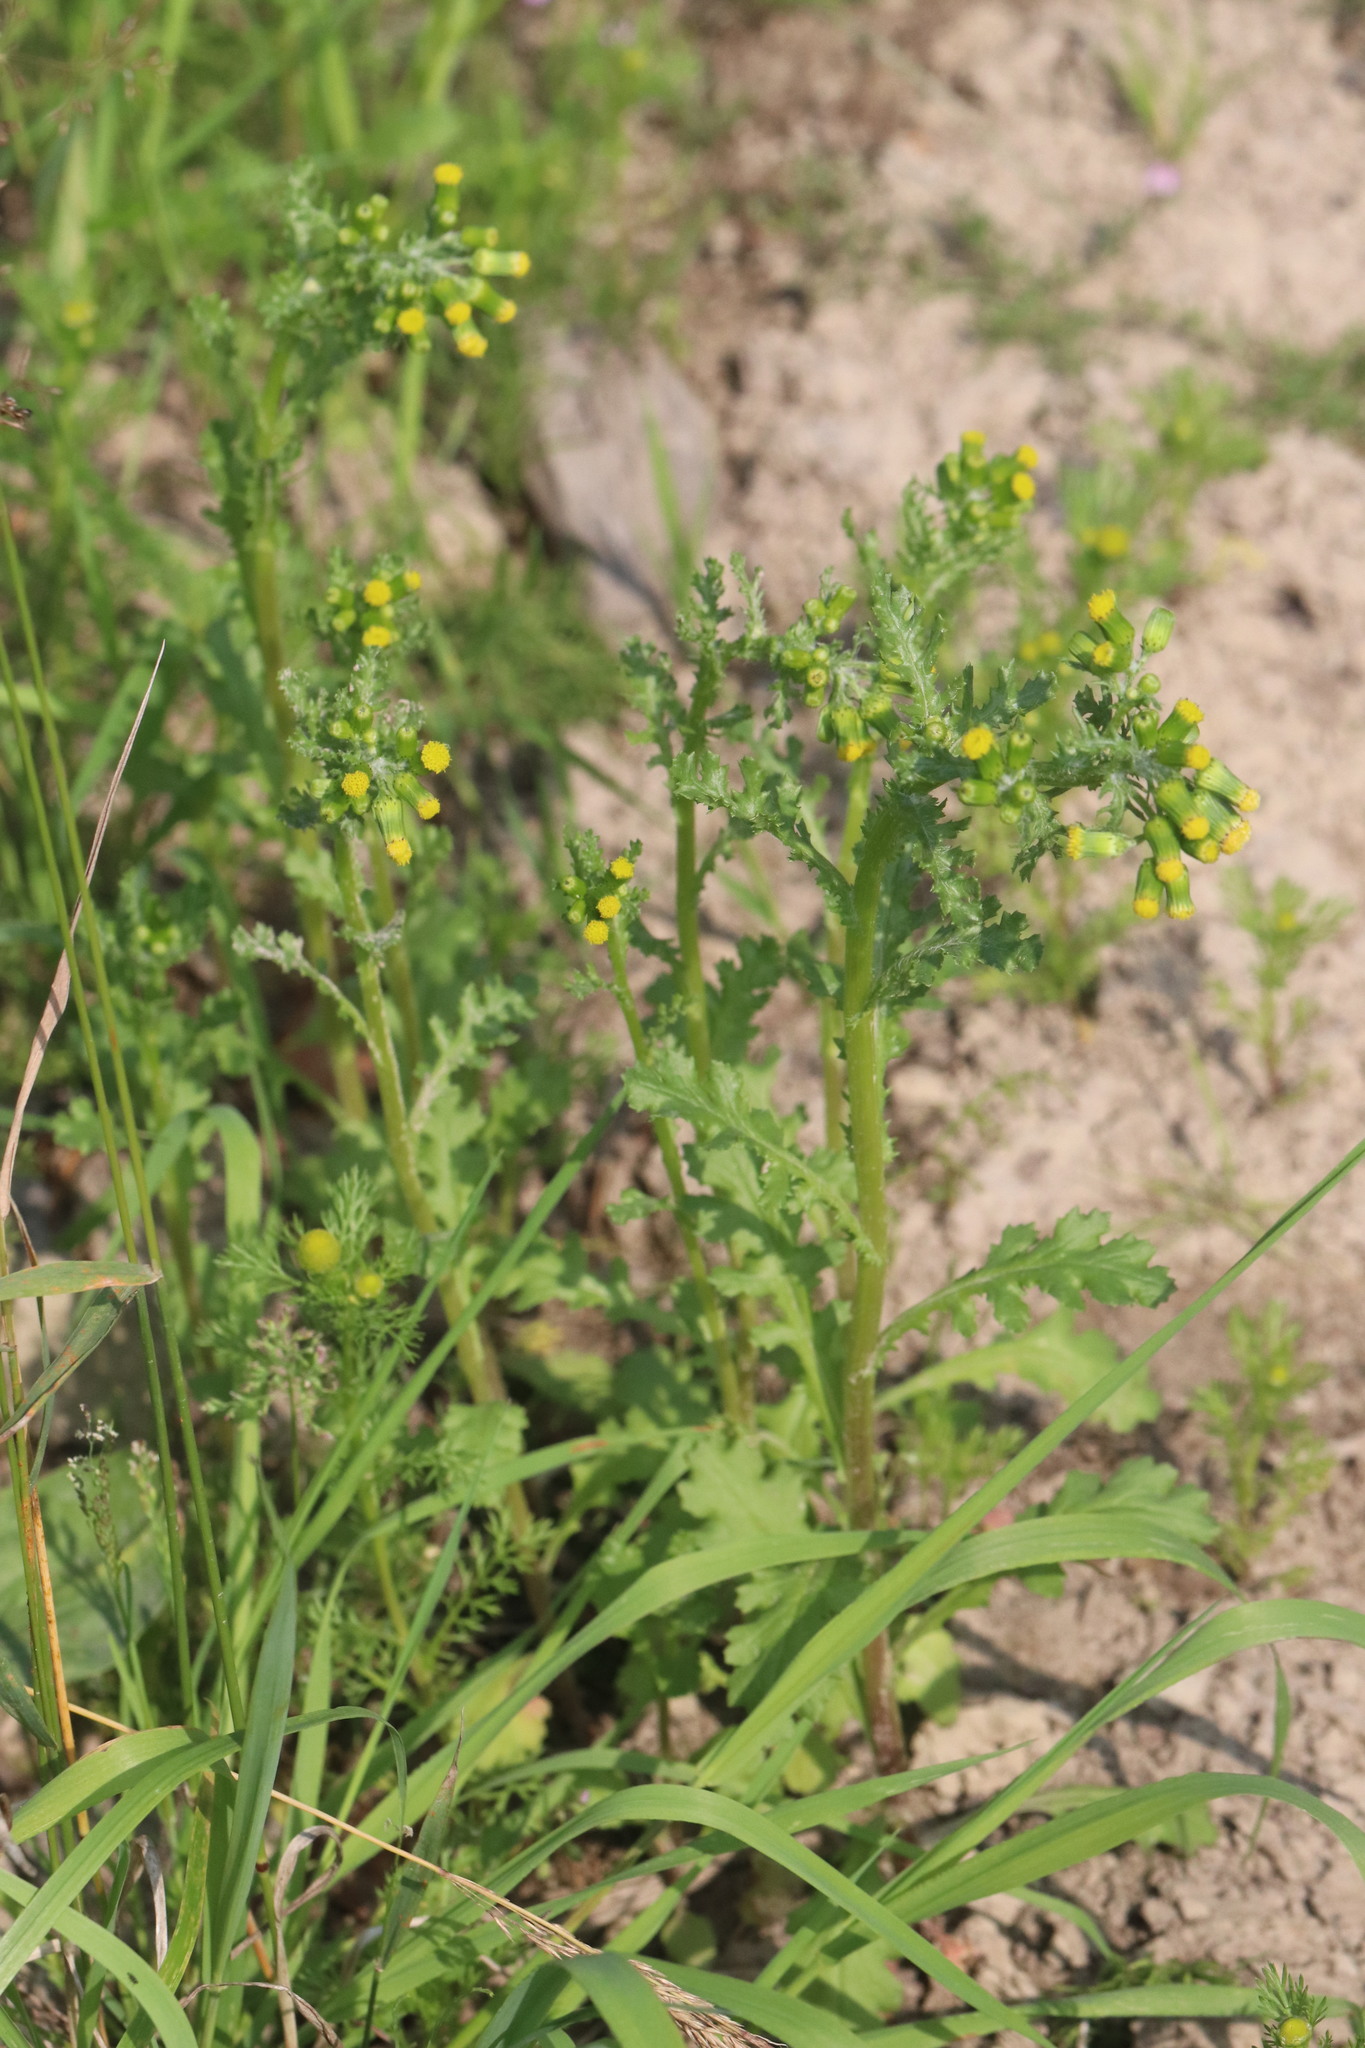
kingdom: Plantae
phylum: Tracheophyta
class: Magnoliopsida
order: Asterales
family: Asteraceae
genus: Senecio
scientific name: Senecio vulgaris
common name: Old-man-in-the-spring
